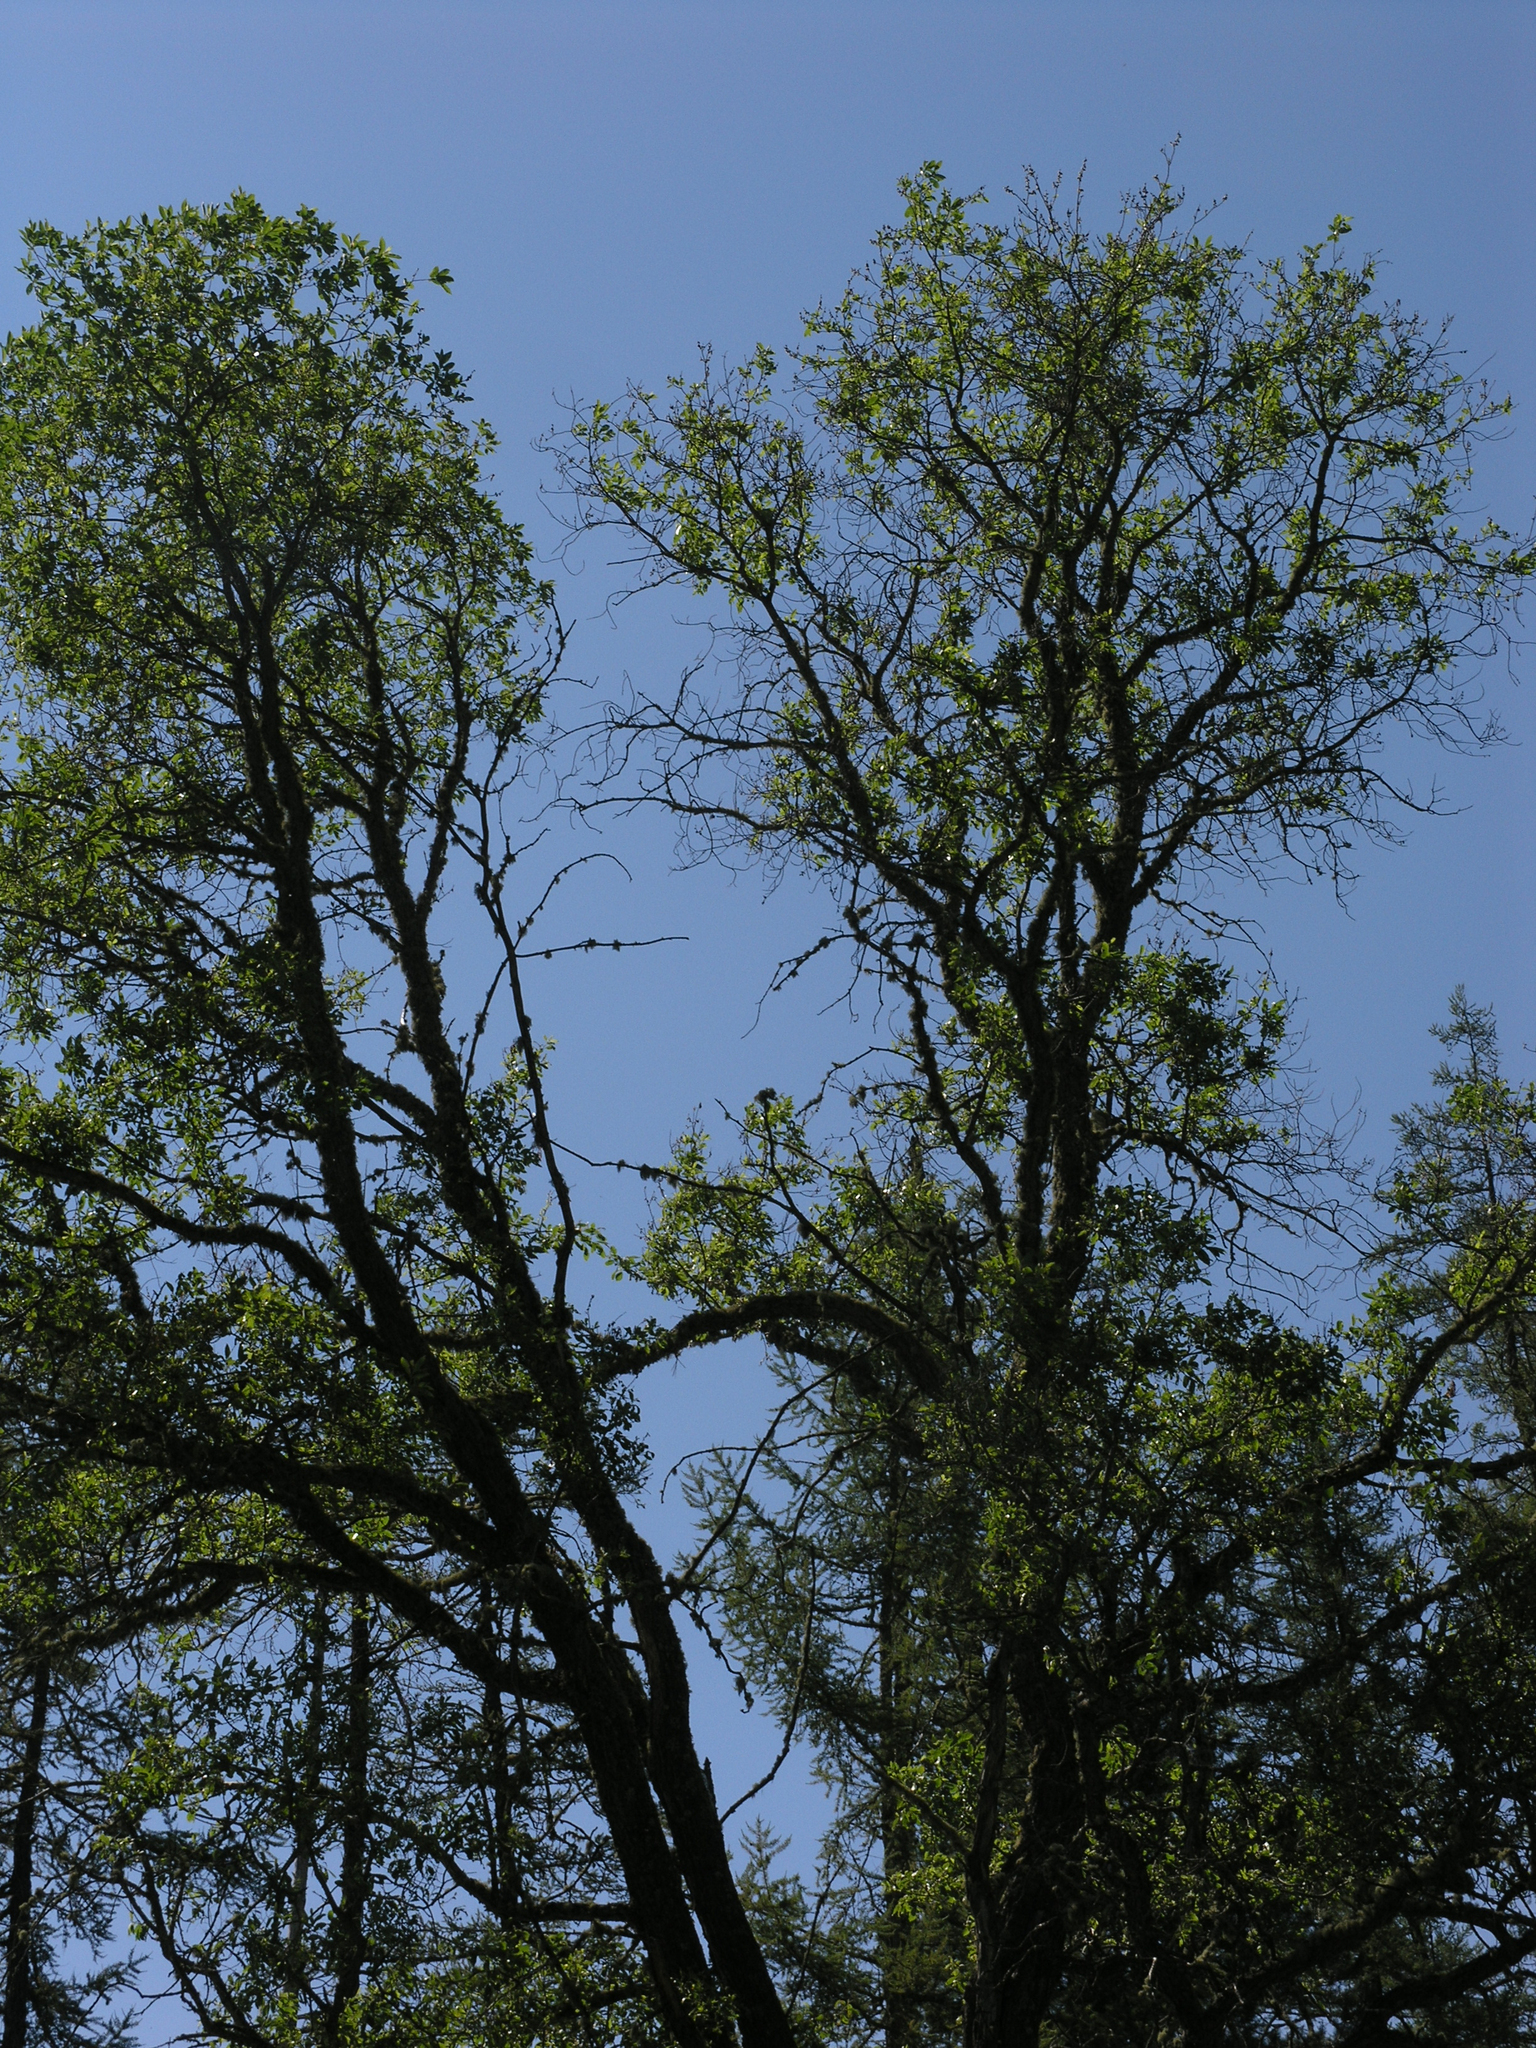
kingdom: Plantae
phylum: Tracheophyta
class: Magnoliopsida
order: Malpighiales
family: Salicaceae
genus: Salix
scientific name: Salix caprea
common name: Goat willow
